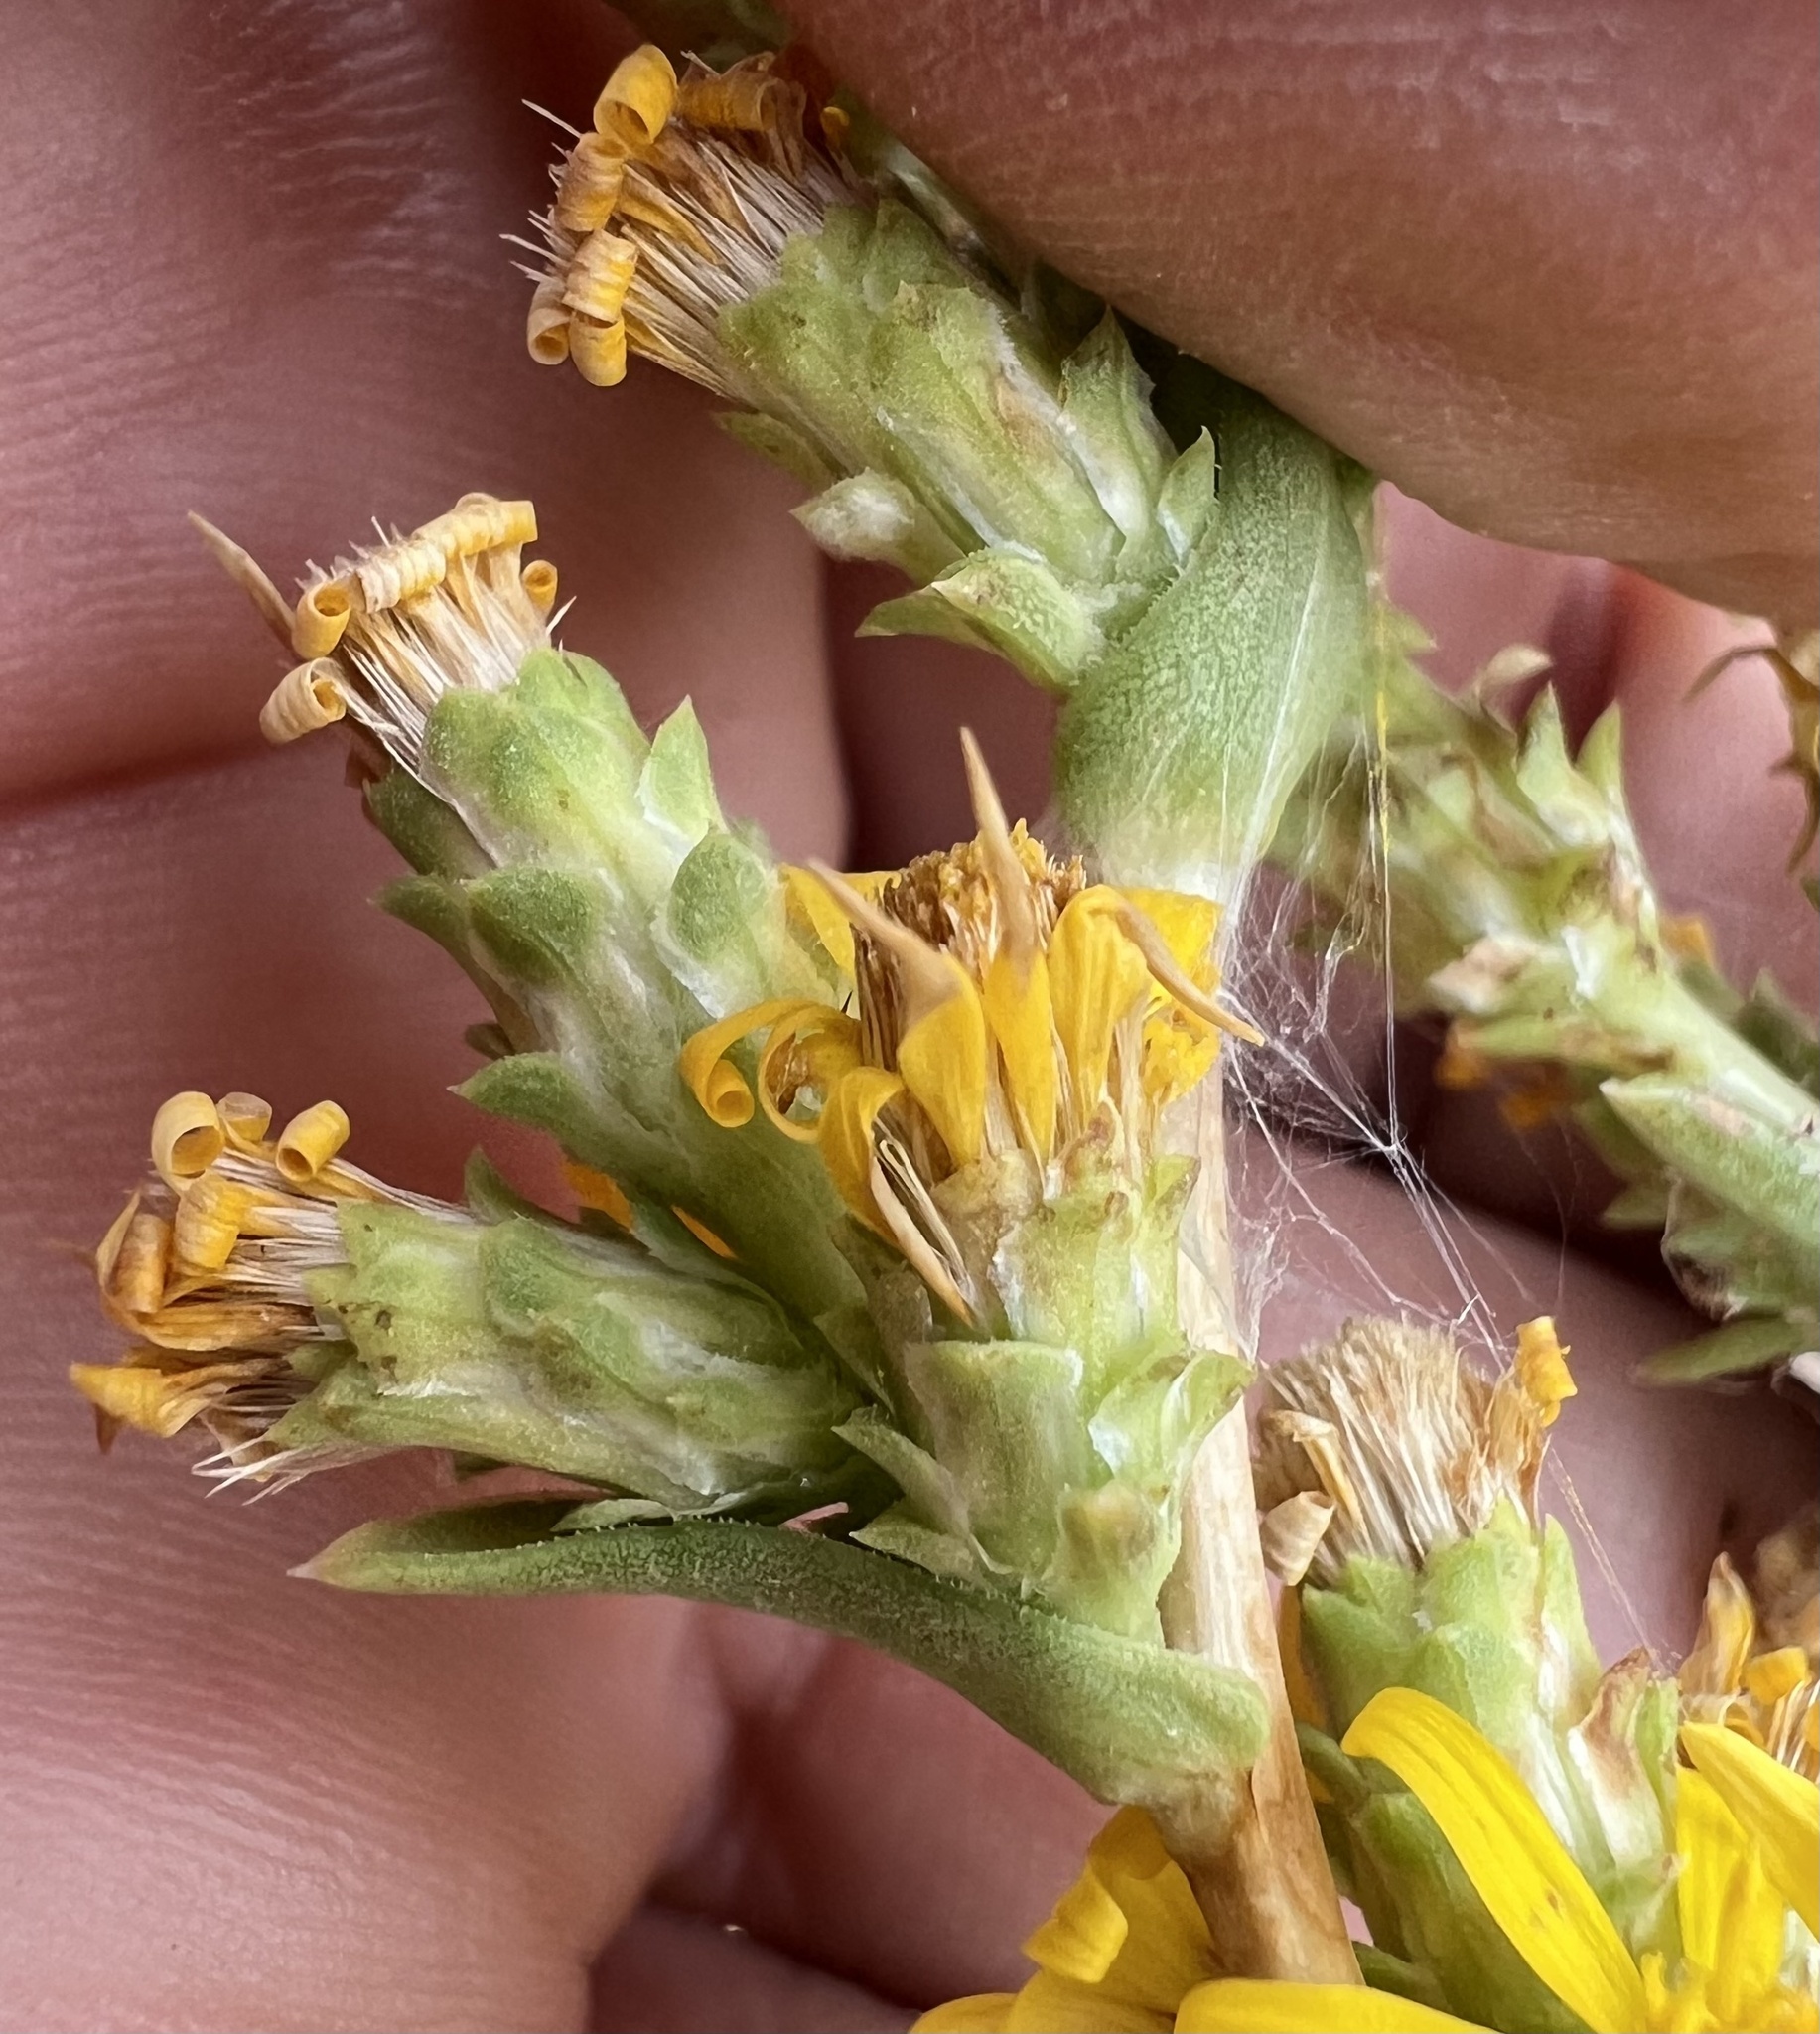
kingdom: Plantae
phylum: Tracheophyta
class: Magnoliopsida
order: Asterales
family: Asteraceae
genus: Pyrrocoma
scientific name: Pyrrocoma racemosa
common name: Clustered goldenweed
